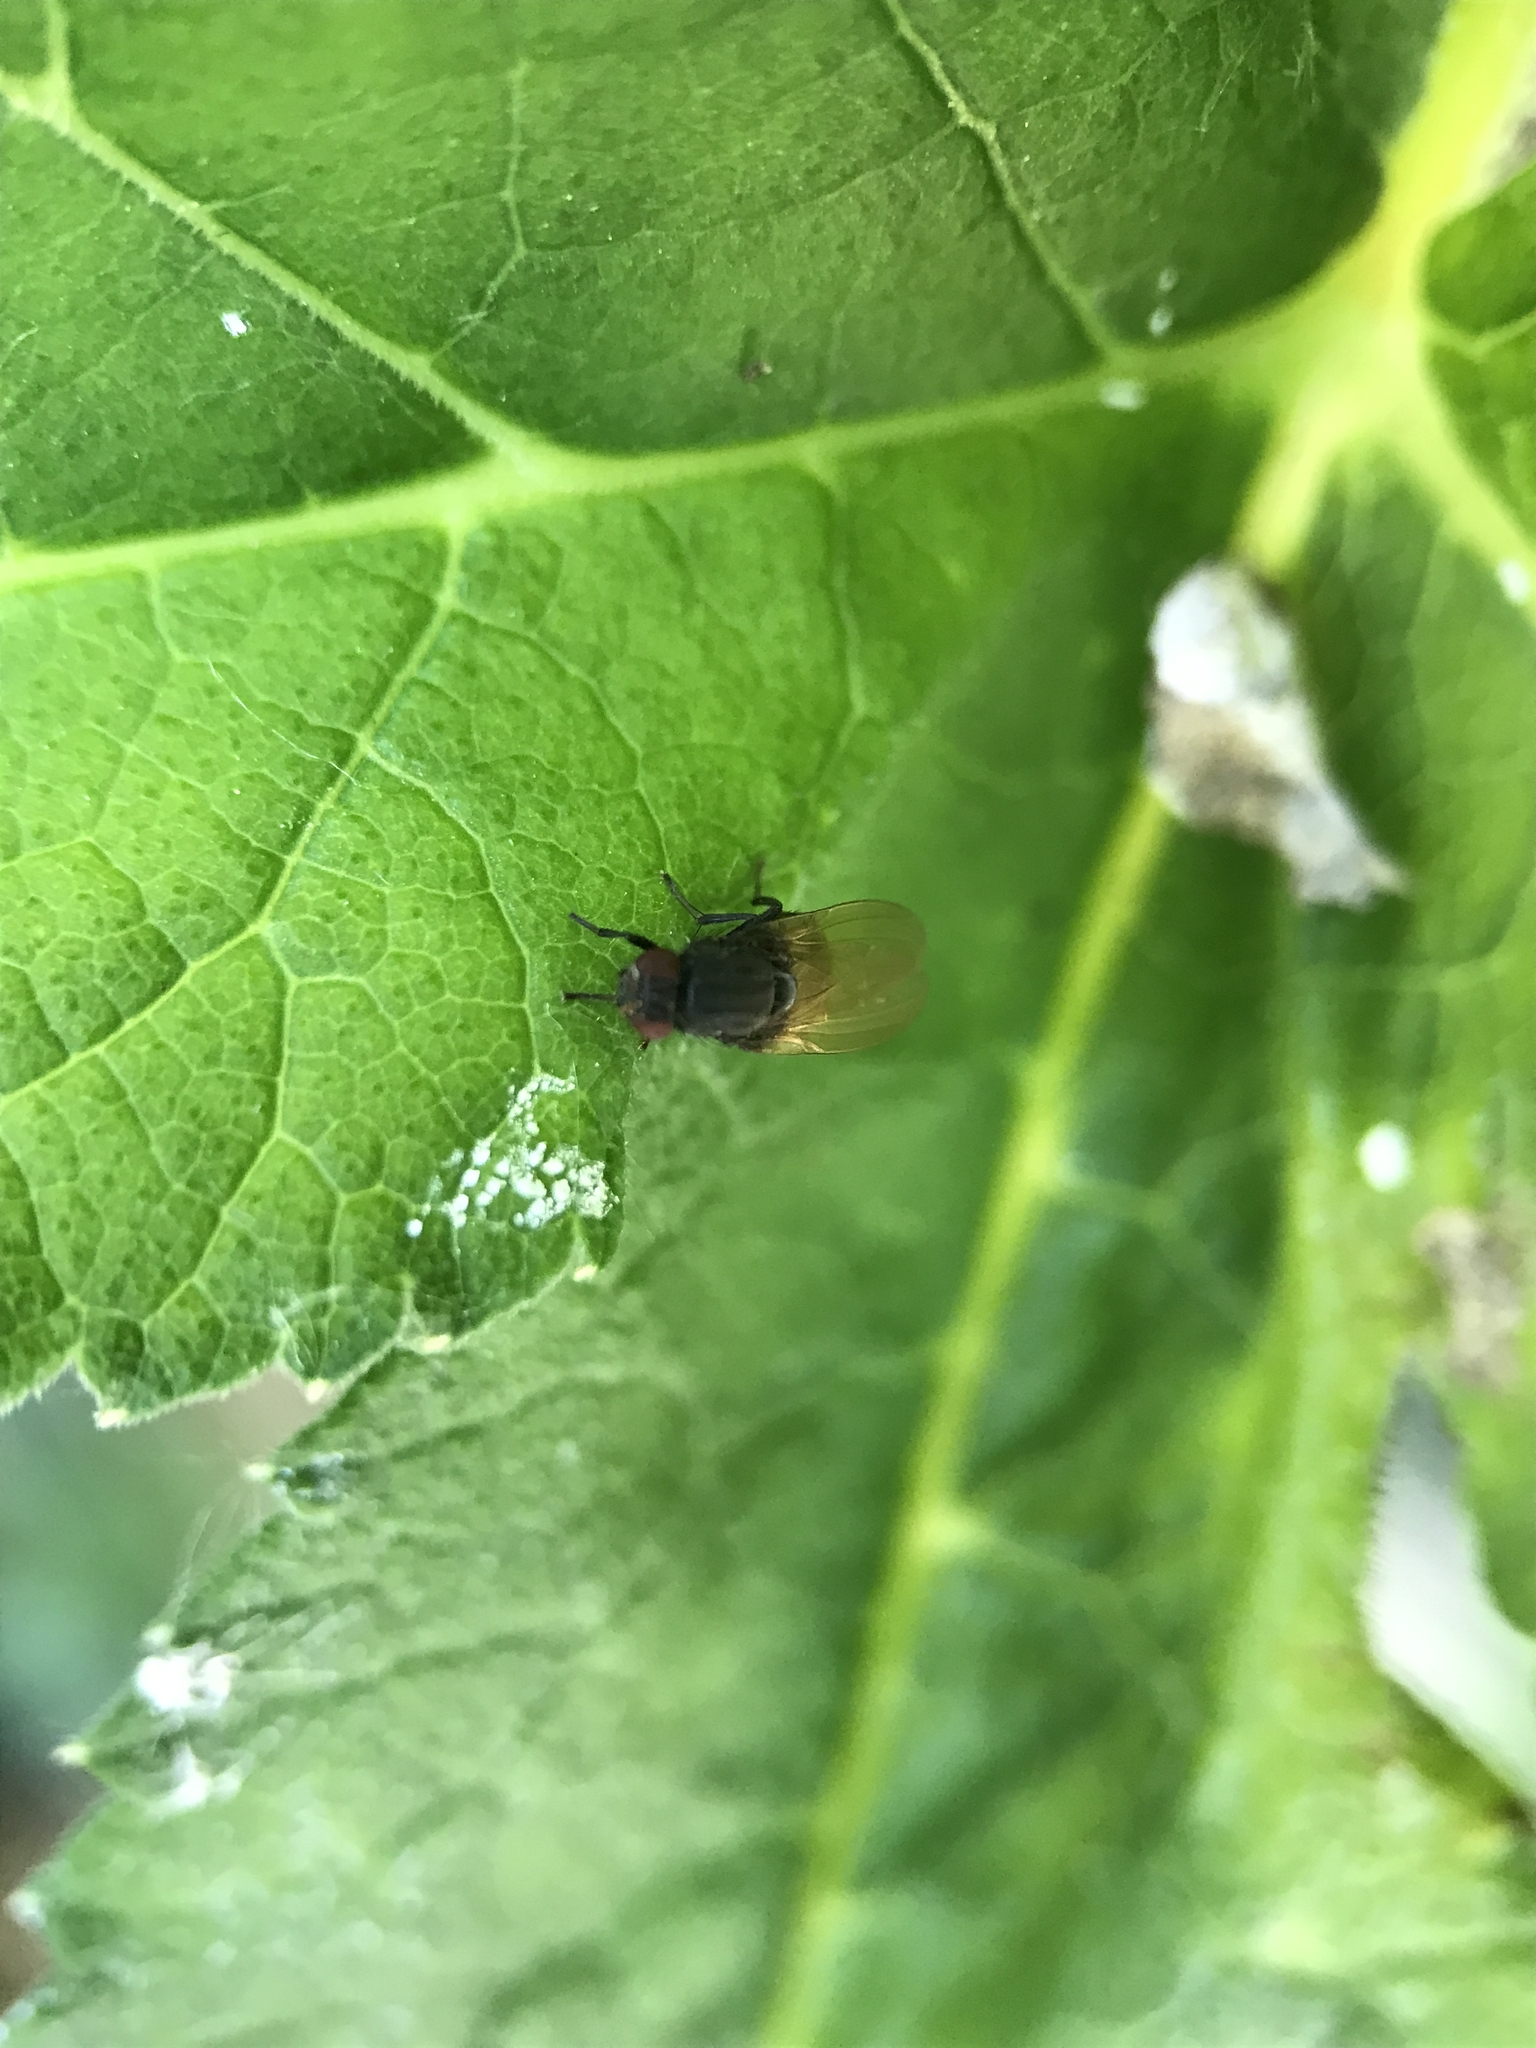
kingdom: Animalia
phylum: Arthropoda
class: Insecta
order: Diptera
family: Lauxaniidae
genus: Minettia
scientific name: Minettia longipennis
